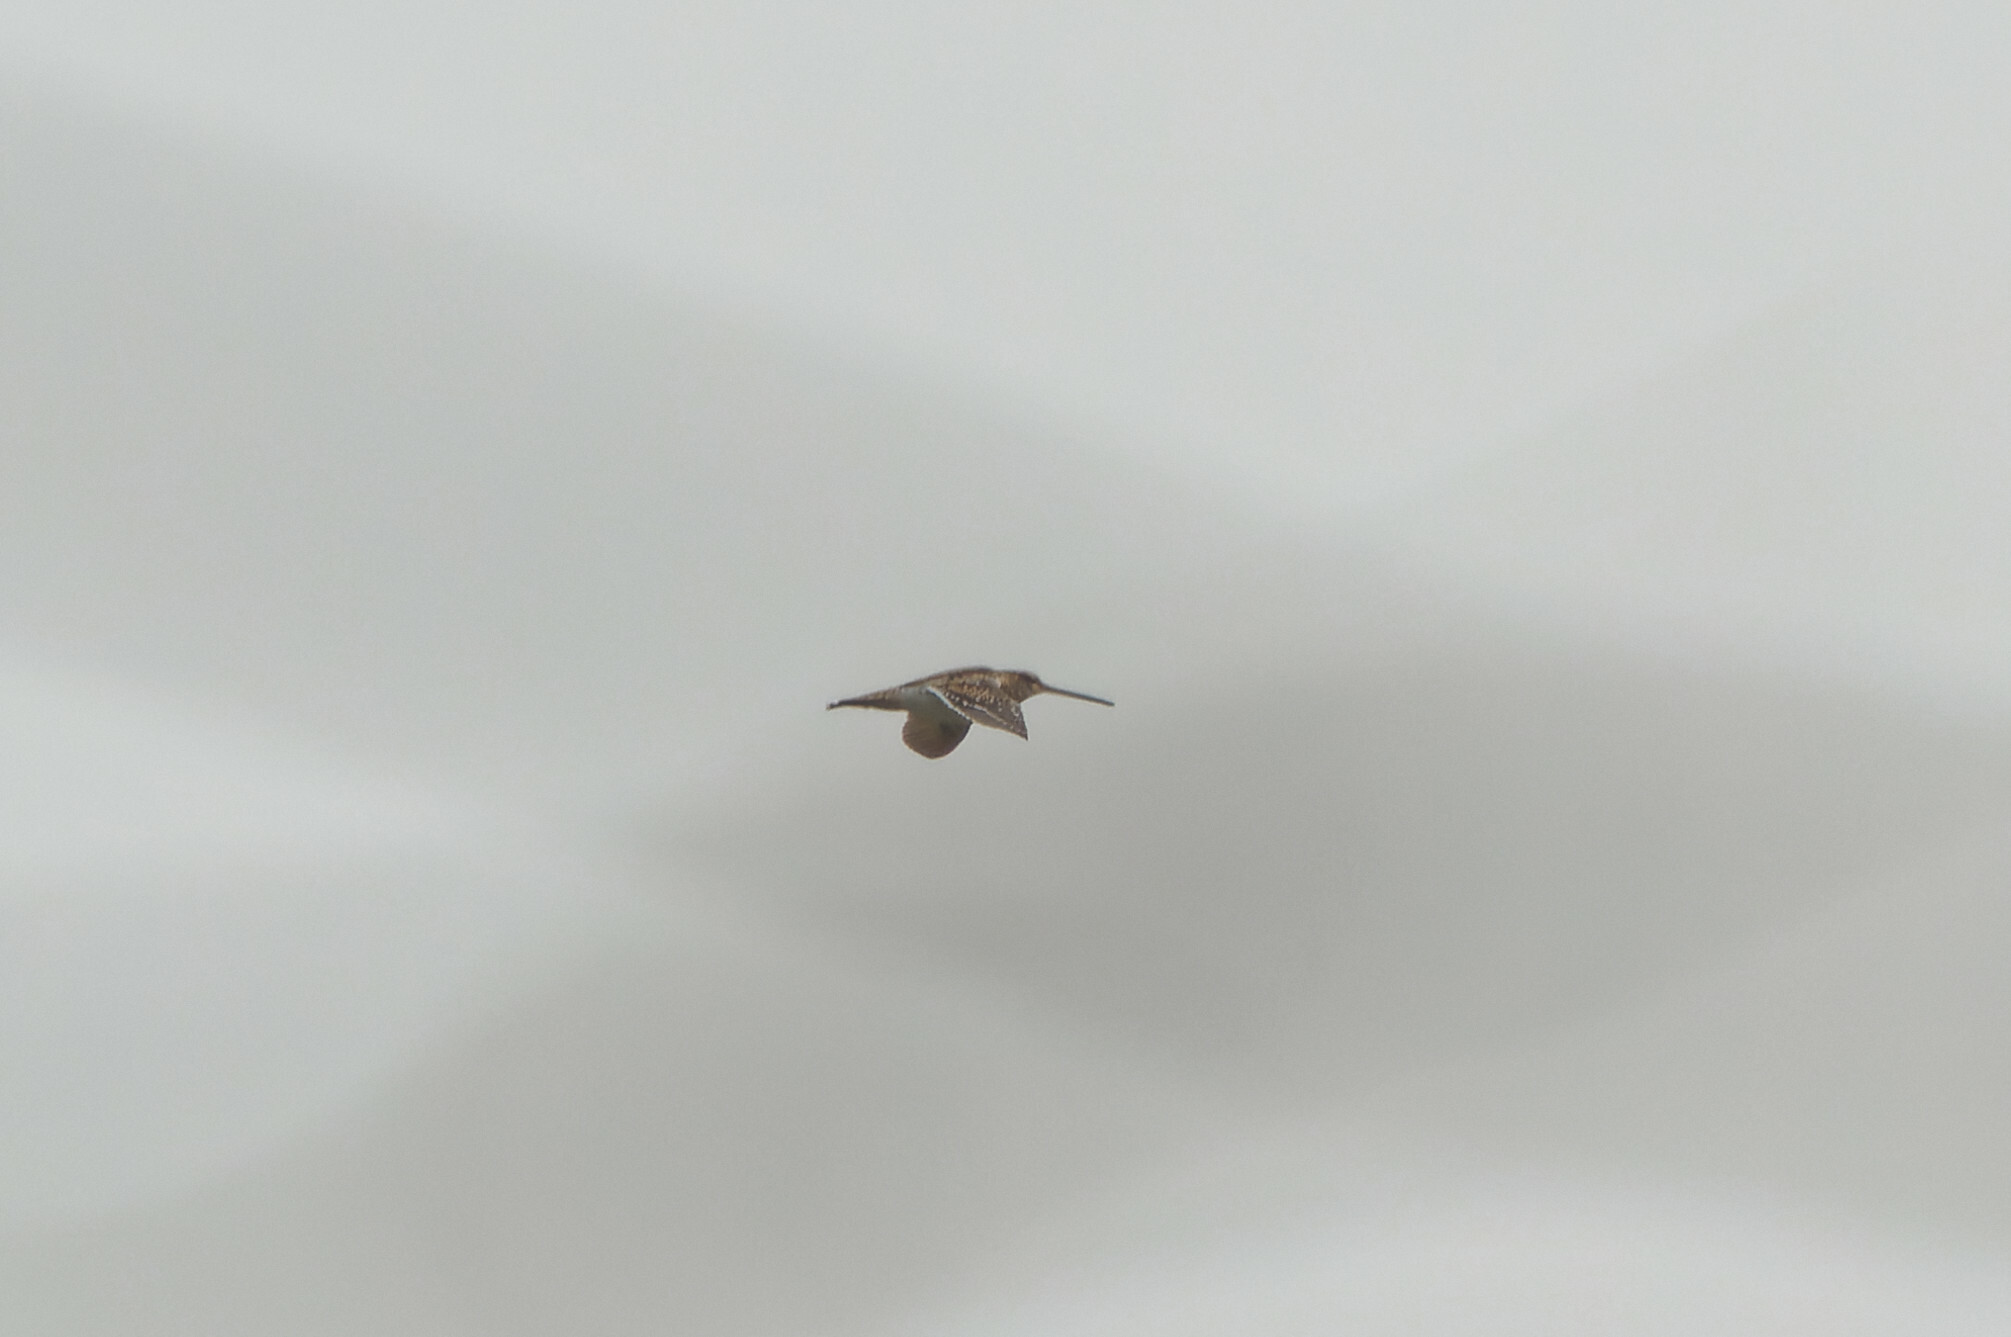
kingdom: Animalia
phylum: Chordata
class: Aves
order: Charadriiformes
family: Scolopacidae
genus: Gallinago
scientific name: Gallinago gallinago
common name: Common snipe
